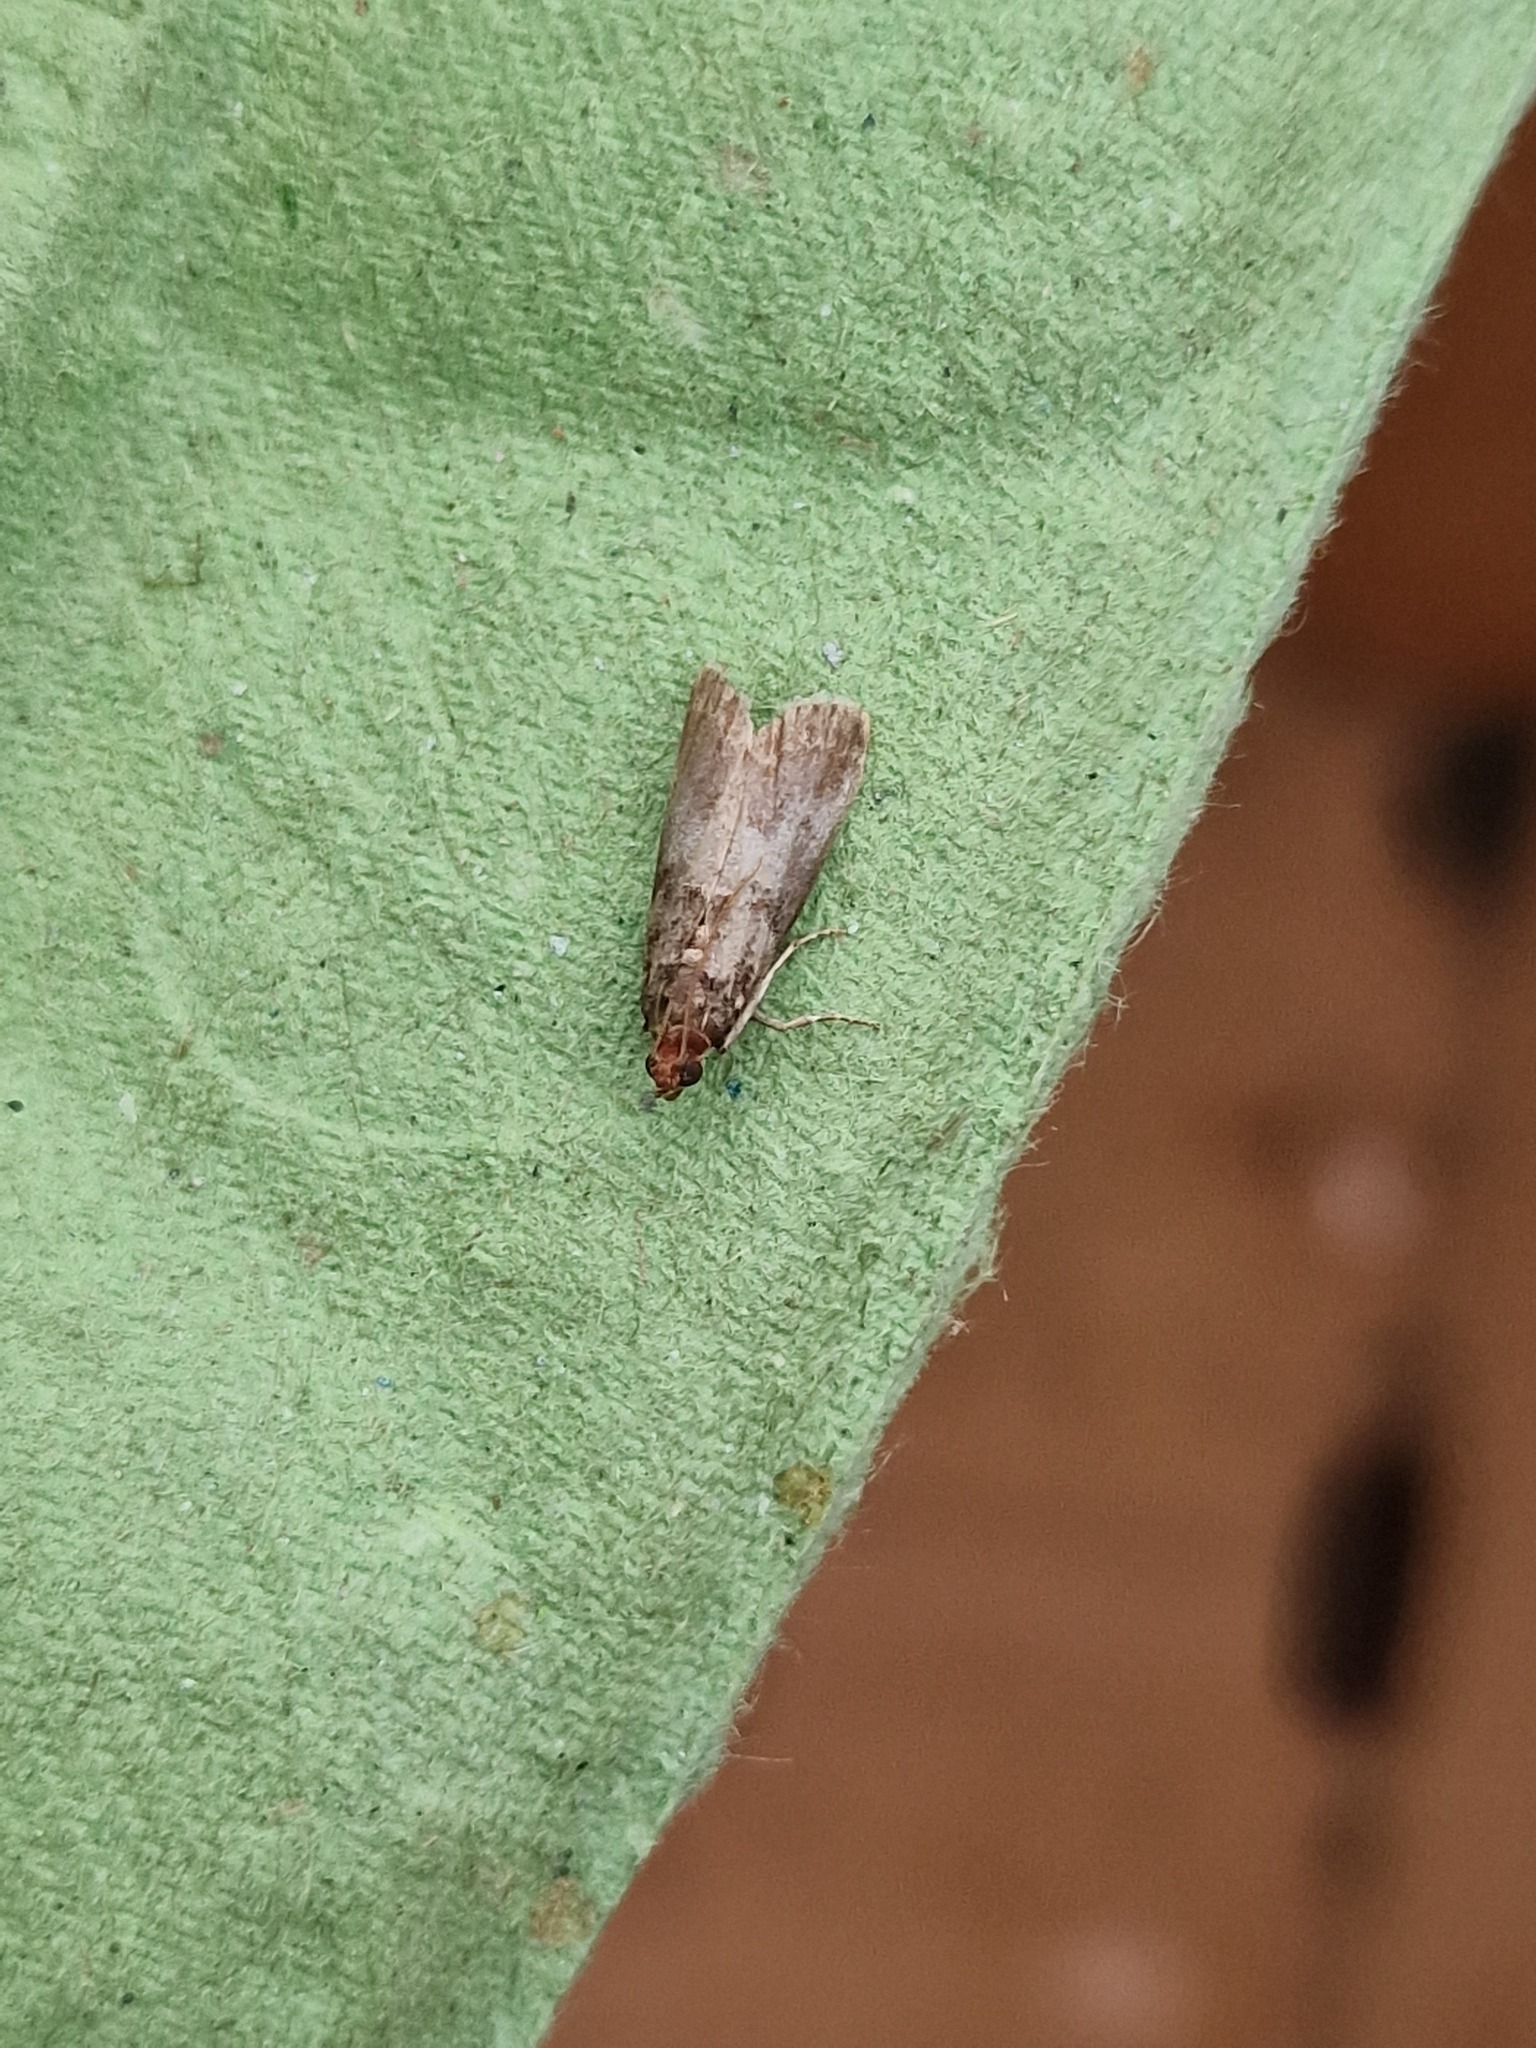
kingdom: Animalia
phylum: Arthropoda
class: Insecta
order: Lepidoptera
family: Pyralidae
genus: Acrobasis
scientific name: Acrobasis advenella
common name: Grey knot-horn
